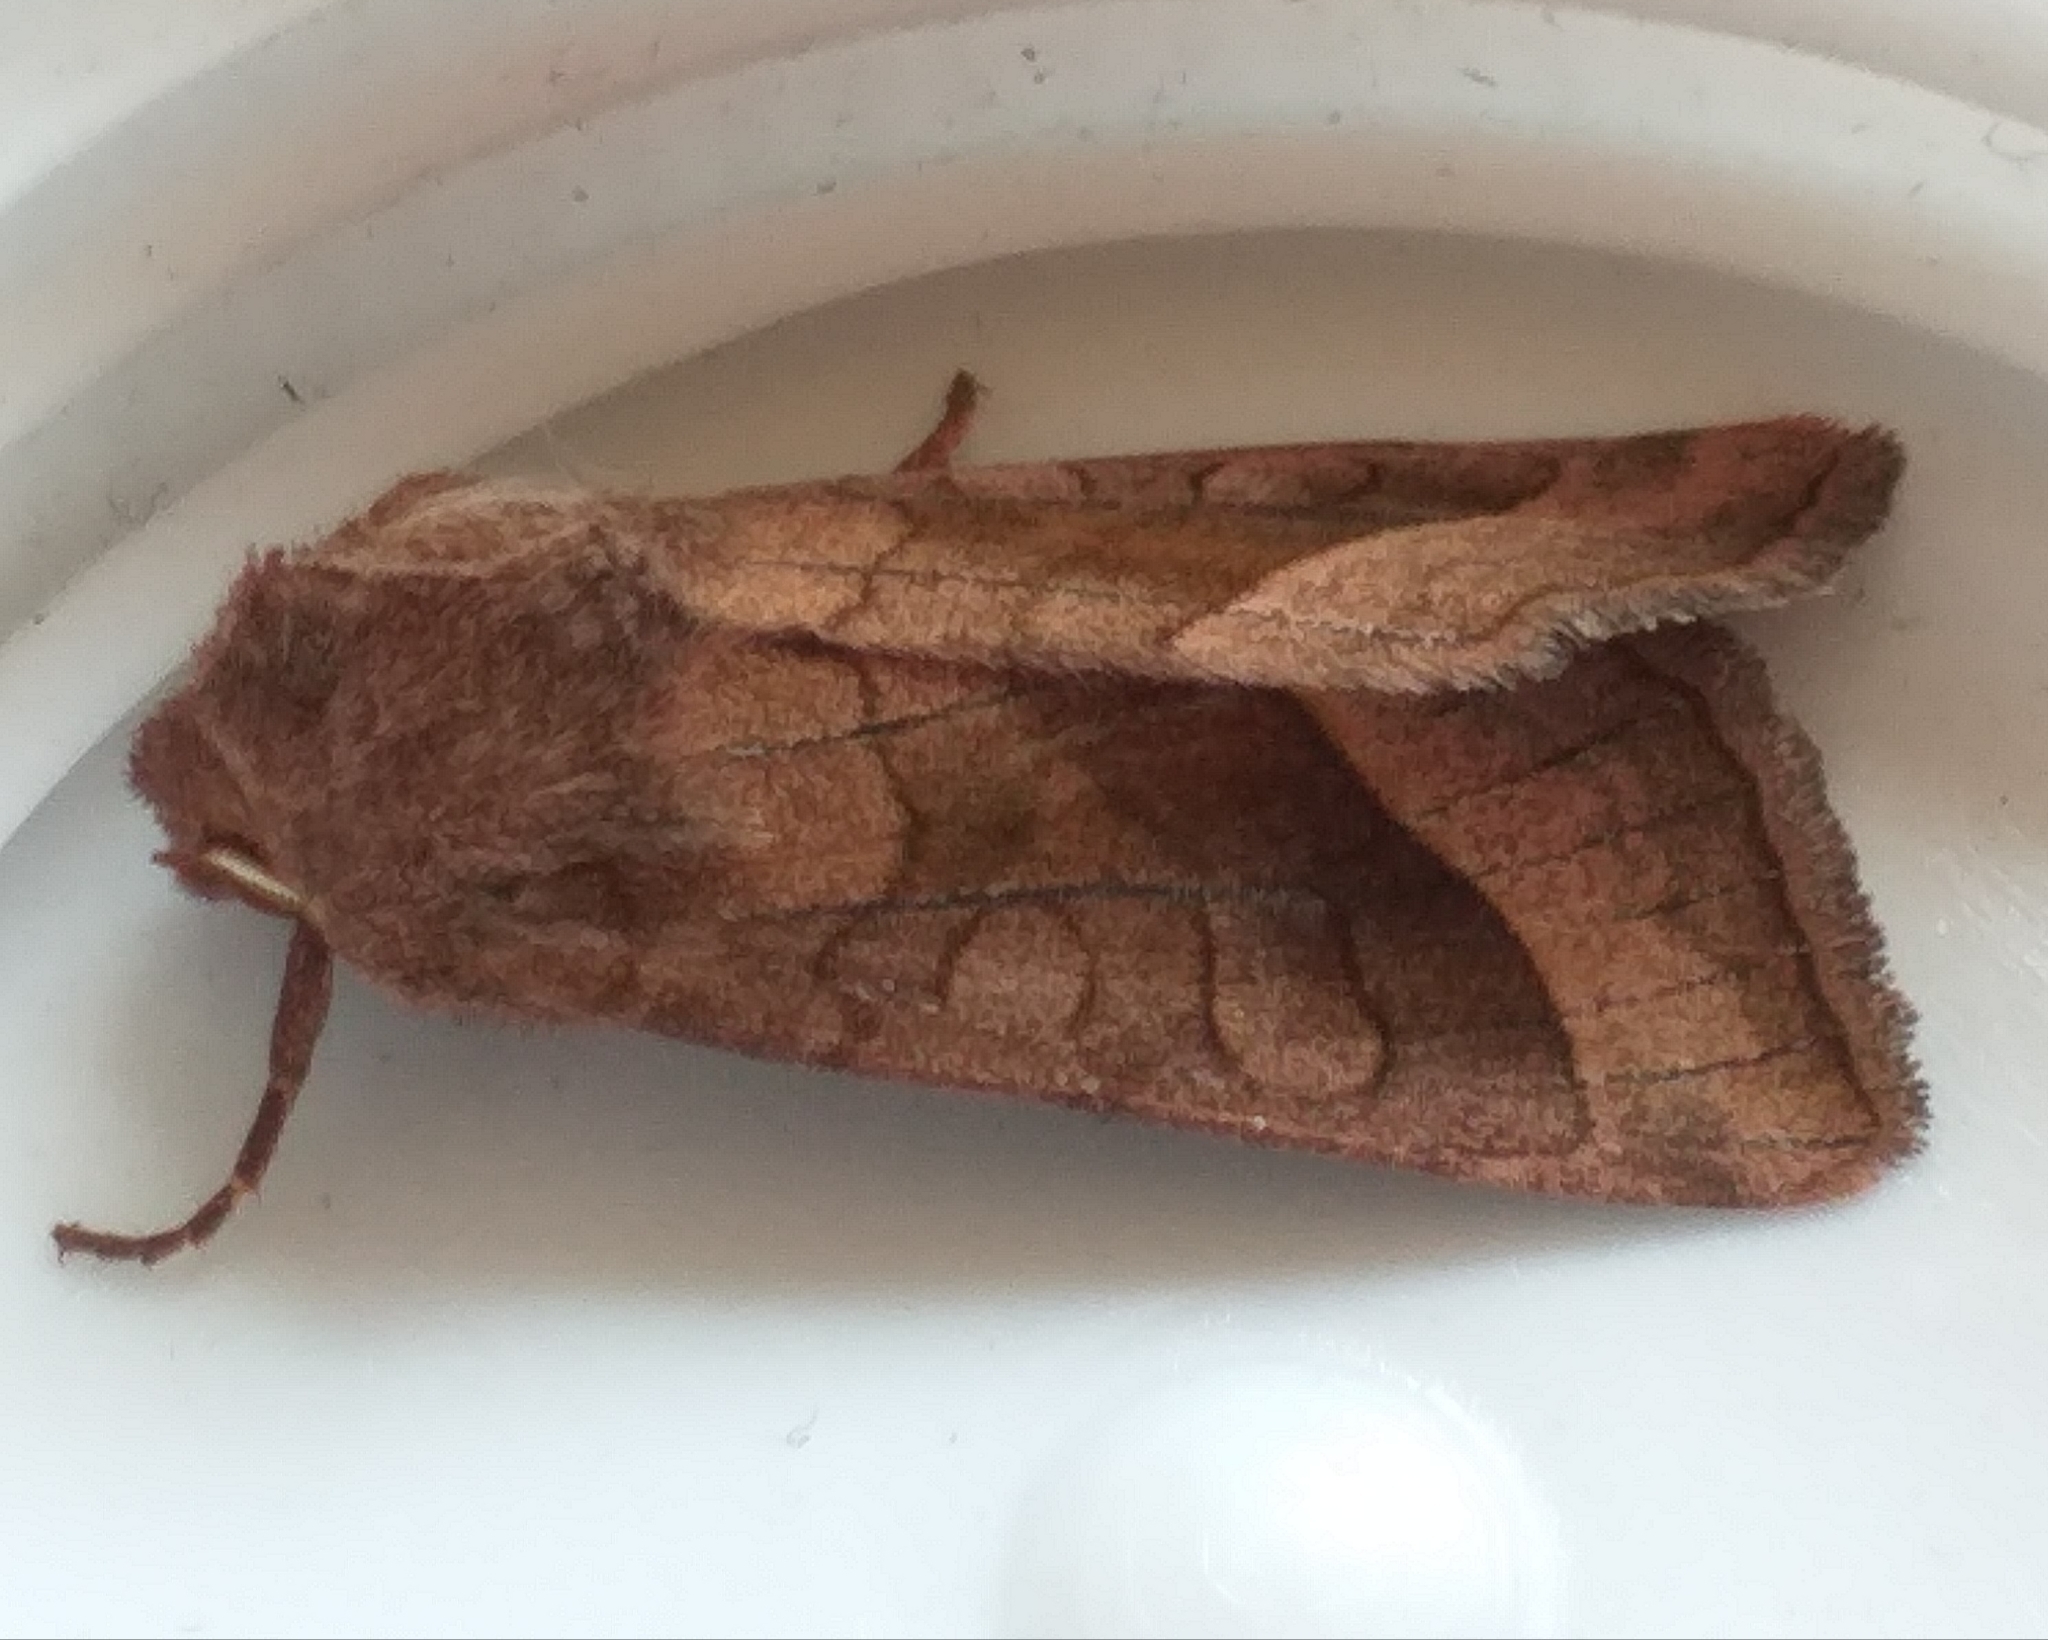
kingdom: Animalia
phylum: Arthropoda
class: Insecta
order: Lepidoptera
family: Noctuidae
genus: Hydraecia
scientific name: Hydraecia micacea
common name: Rosy rustic
